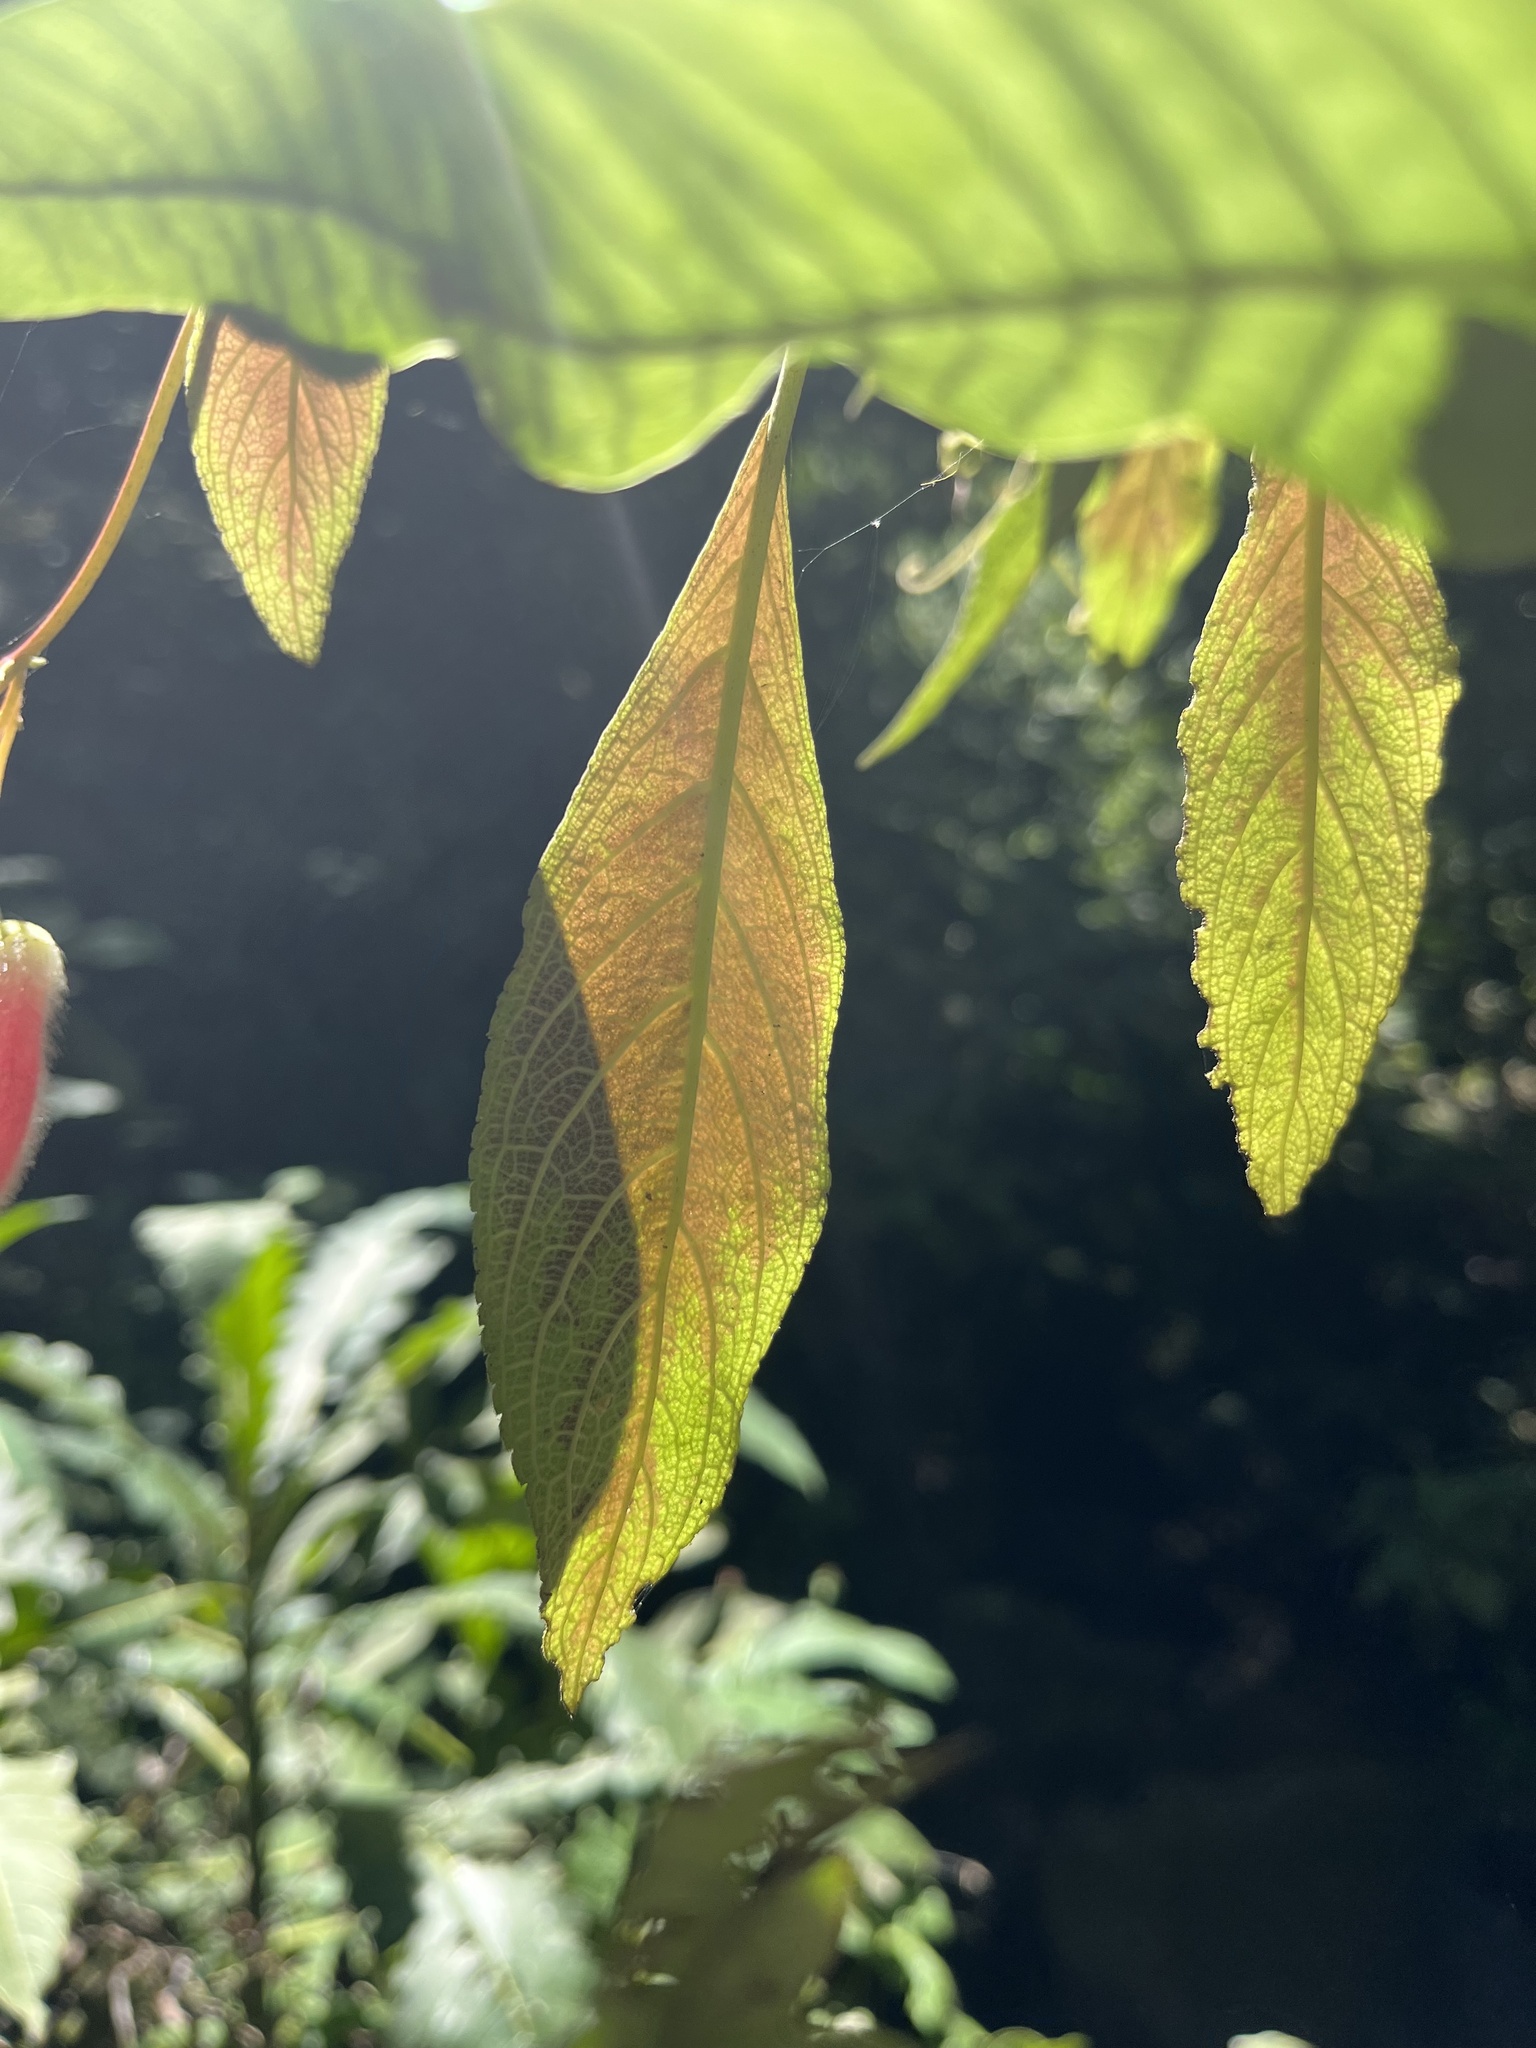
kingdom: Plantae
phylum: Tracheophyta
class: Magnoliopsida
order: Lamiales
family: Gesneriaceae
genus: Kohleria
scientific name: Kohleria affinis
